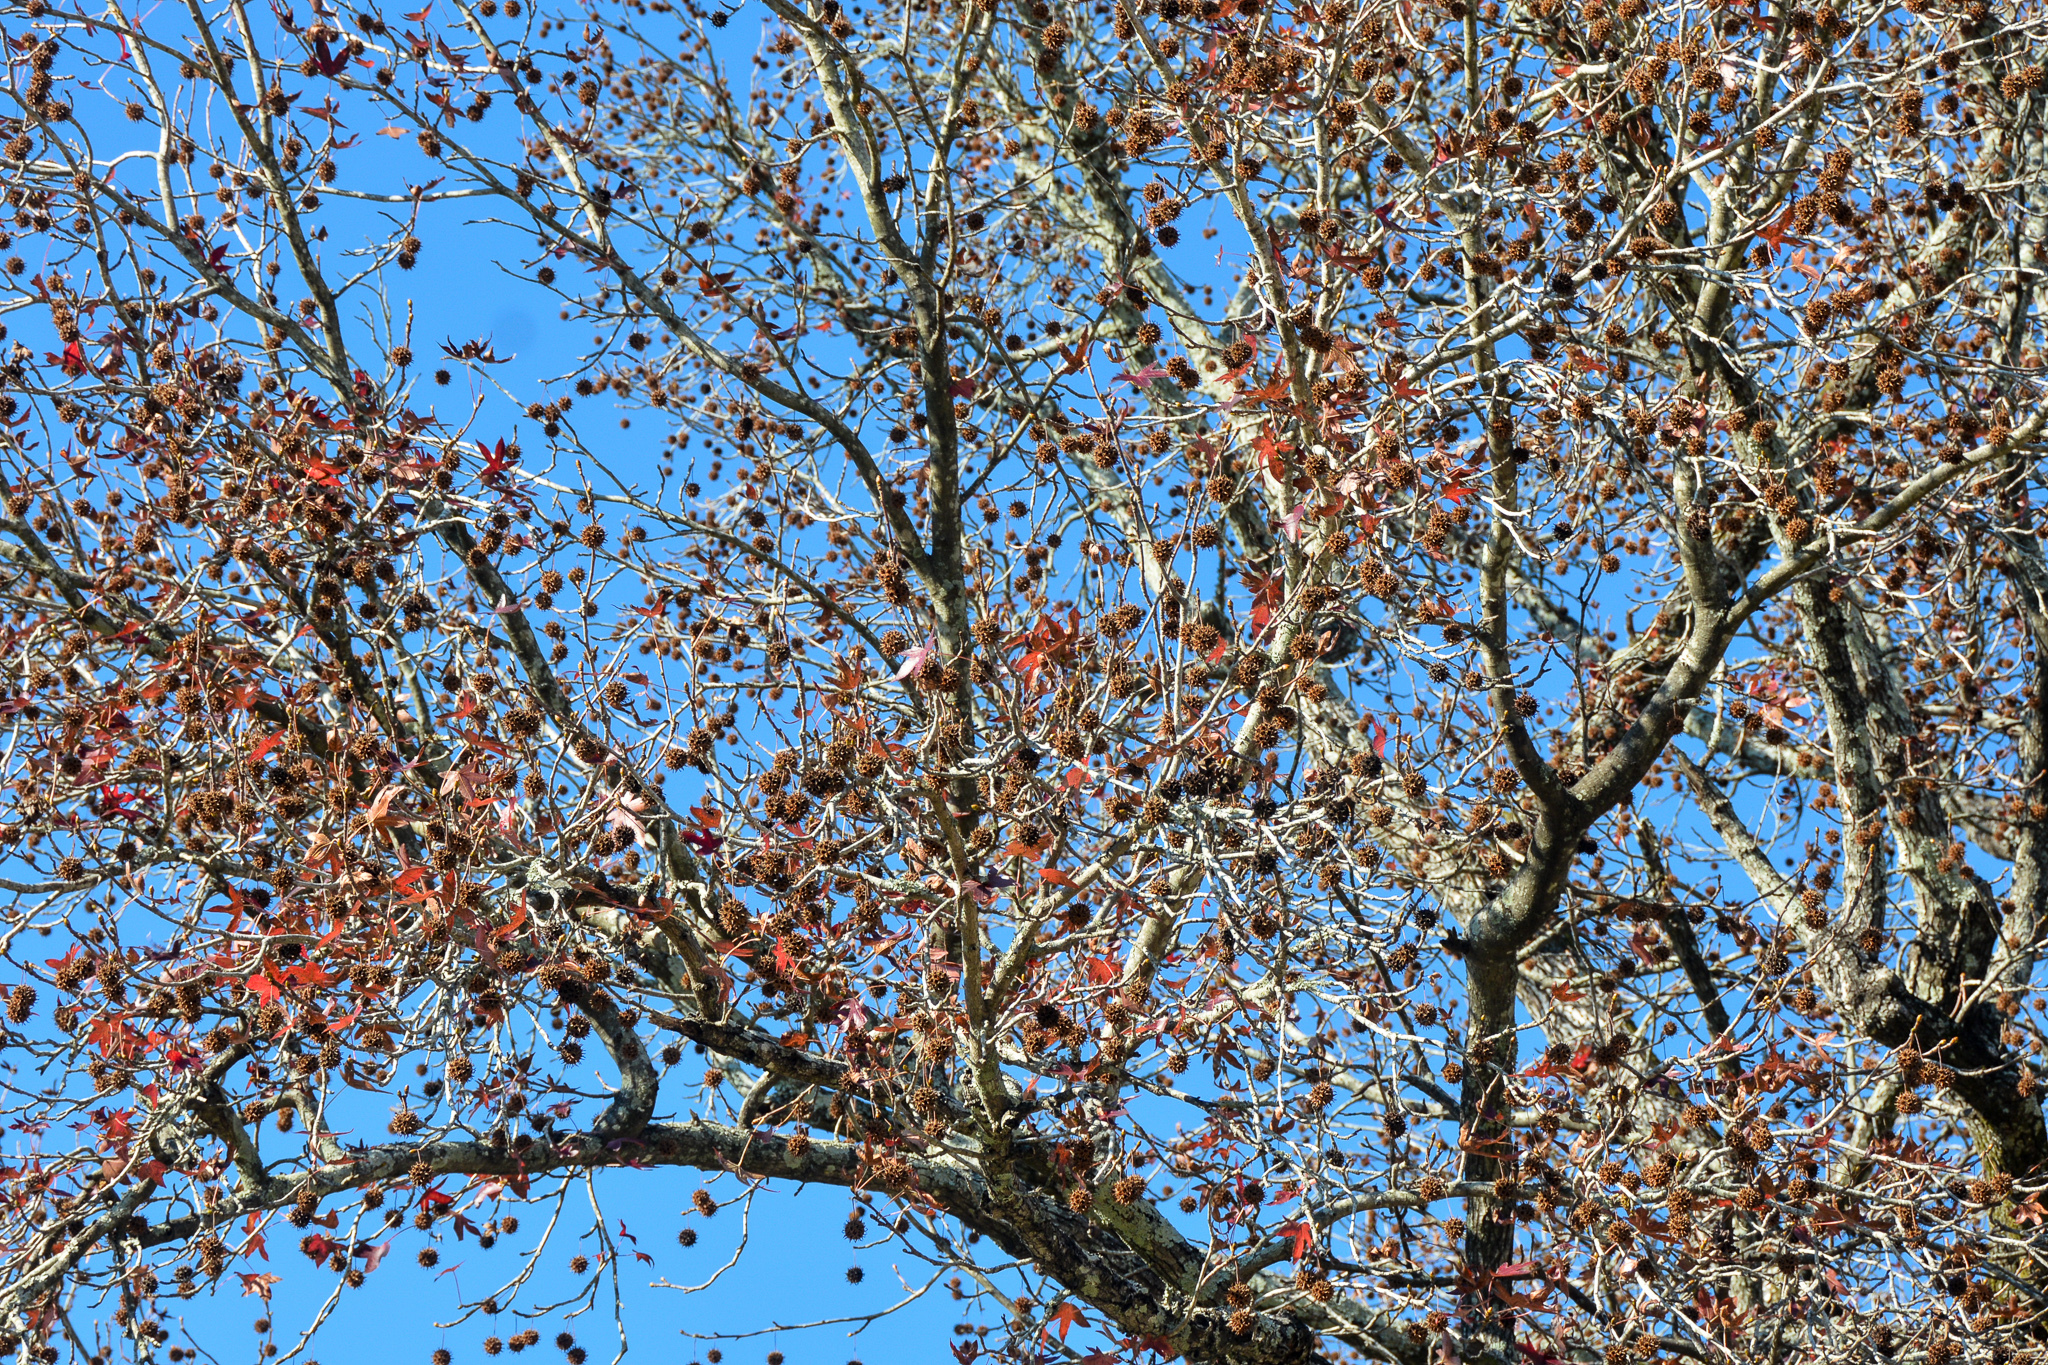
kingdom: Plantae
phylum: Tracheophyta
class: Magnoliopsida
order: Saxifragales
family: Altingiaceae
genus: Liquidambar
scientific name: Liquidambar styraciflua
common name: Sweet gum
